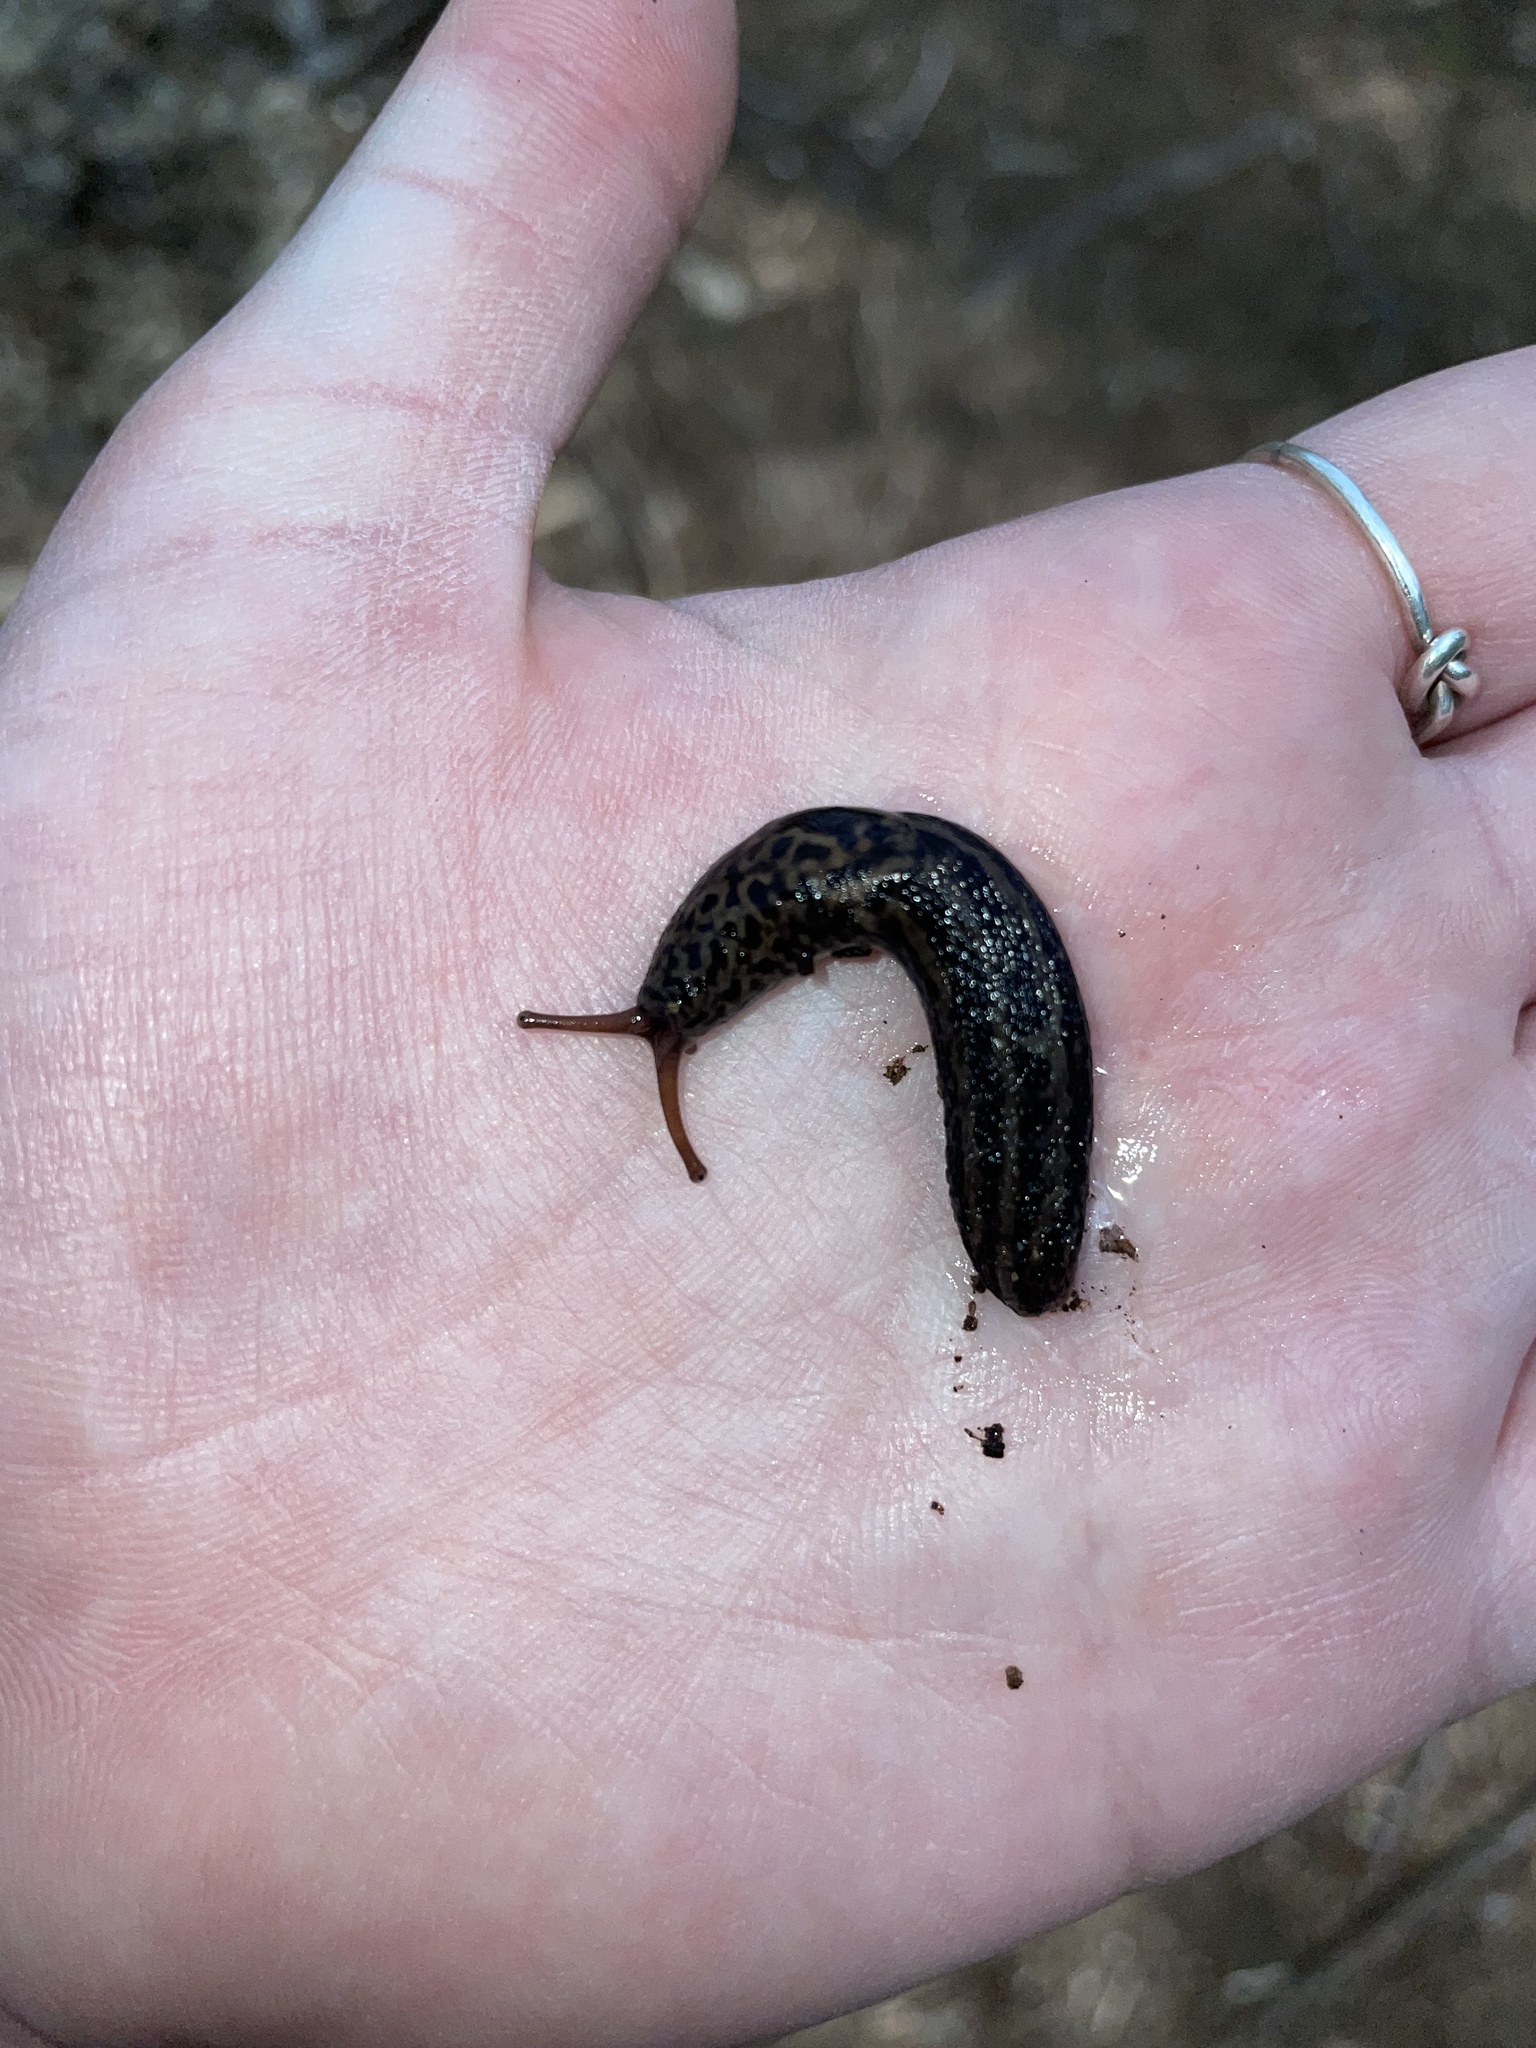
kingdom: Animalia
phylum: Mollusca
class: Gastropoda
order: Stylommatophora
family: Limacidae
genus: Limax
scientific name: Limax maximus
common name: Great grey slug
